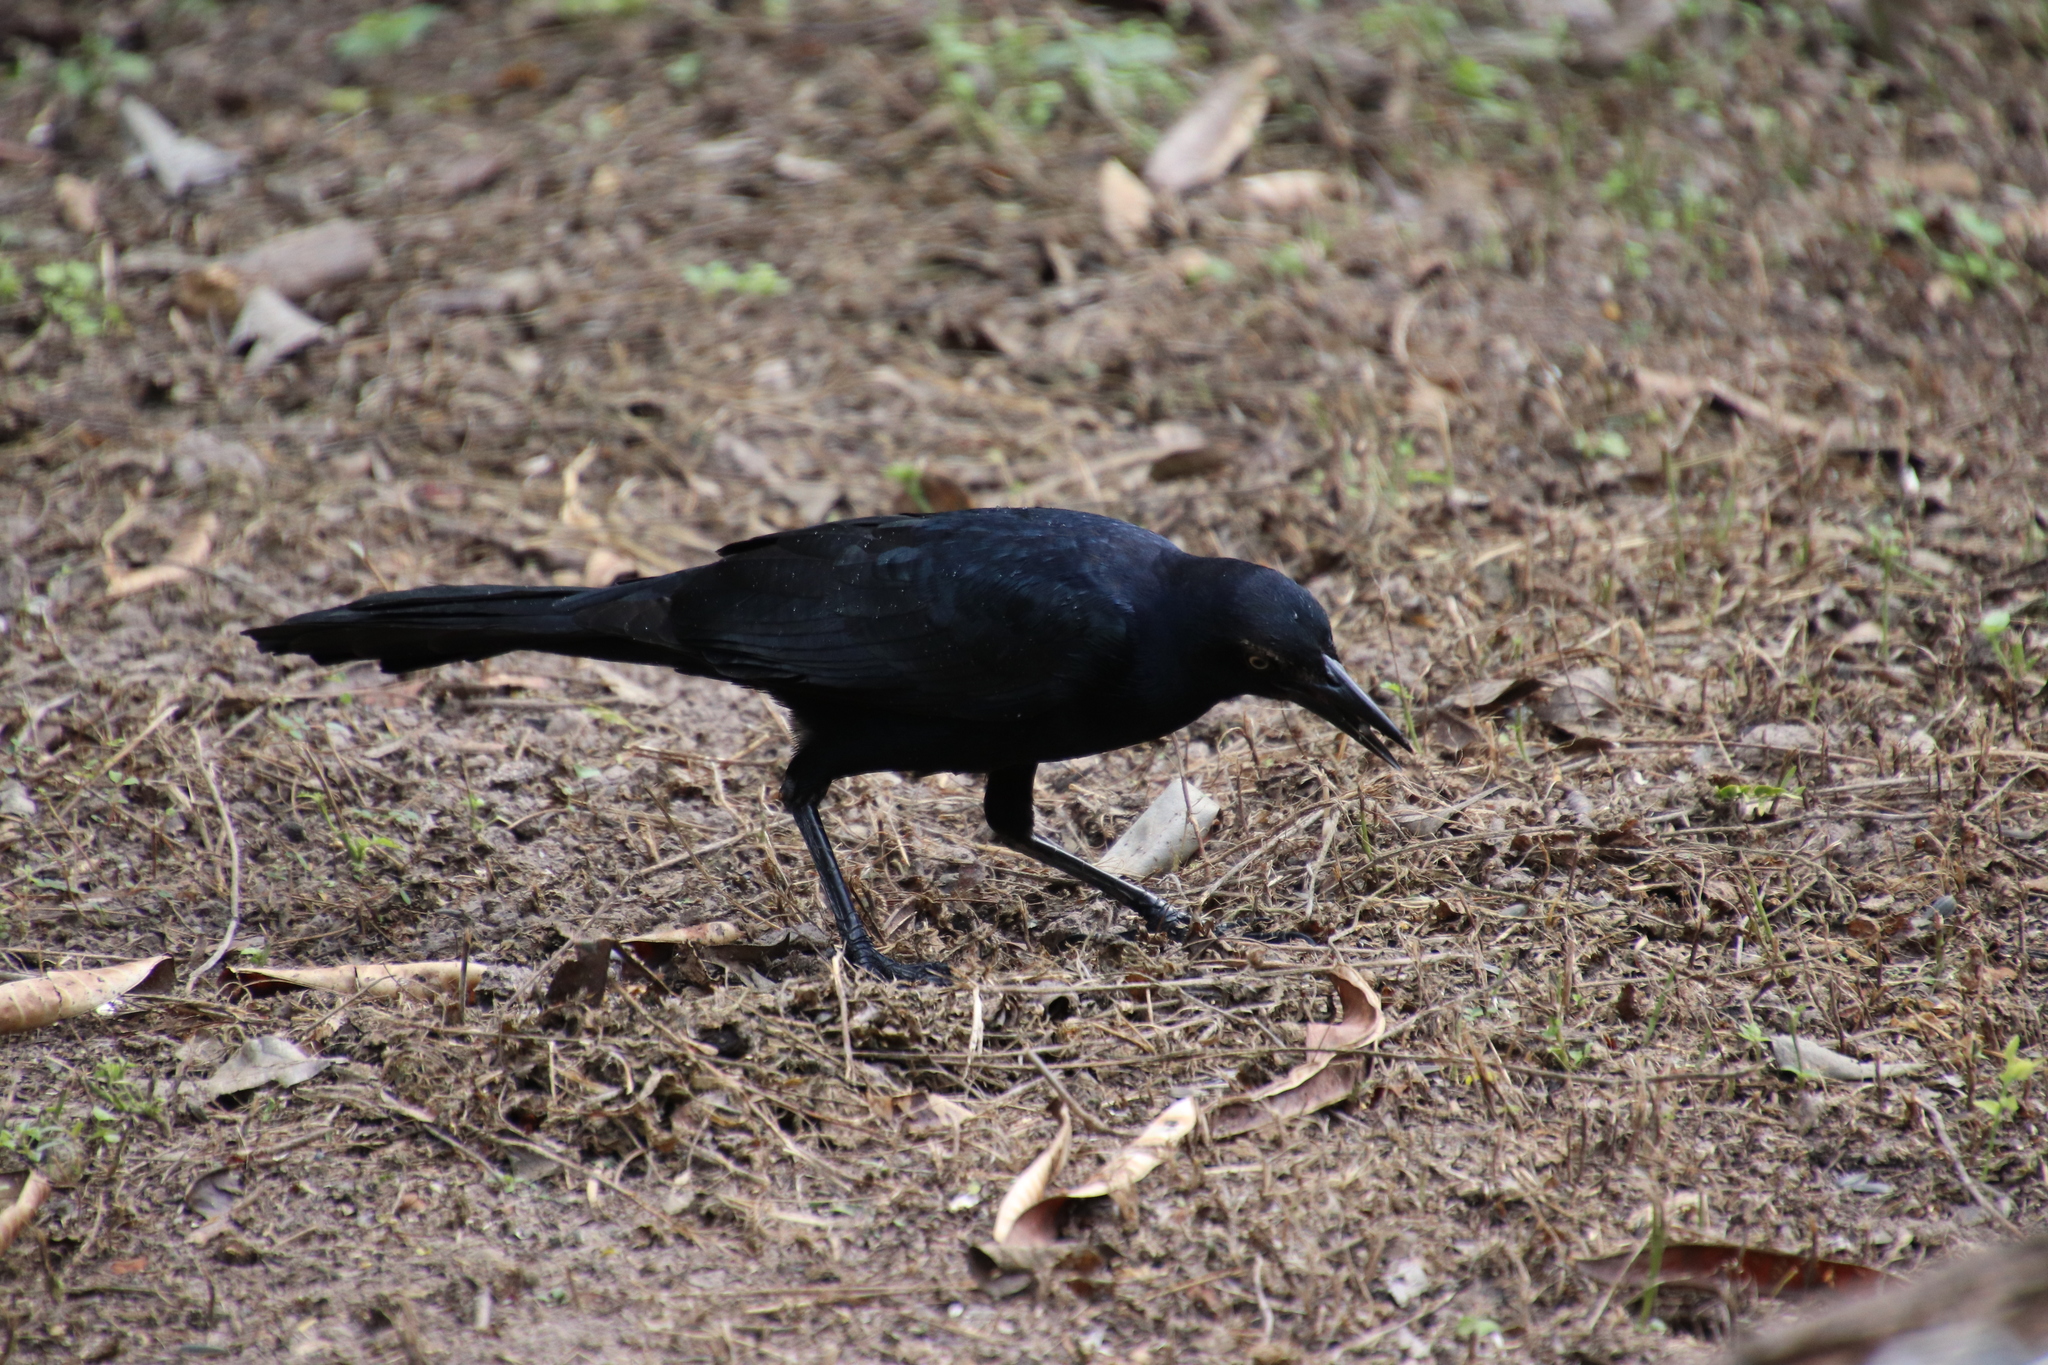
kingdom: Animalia
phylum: Chordata
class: Aves
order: Passeriformes
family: Icteridae
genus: Quiscalus
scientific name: Quiscalus mexicanus
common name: Great-tailed grackle
